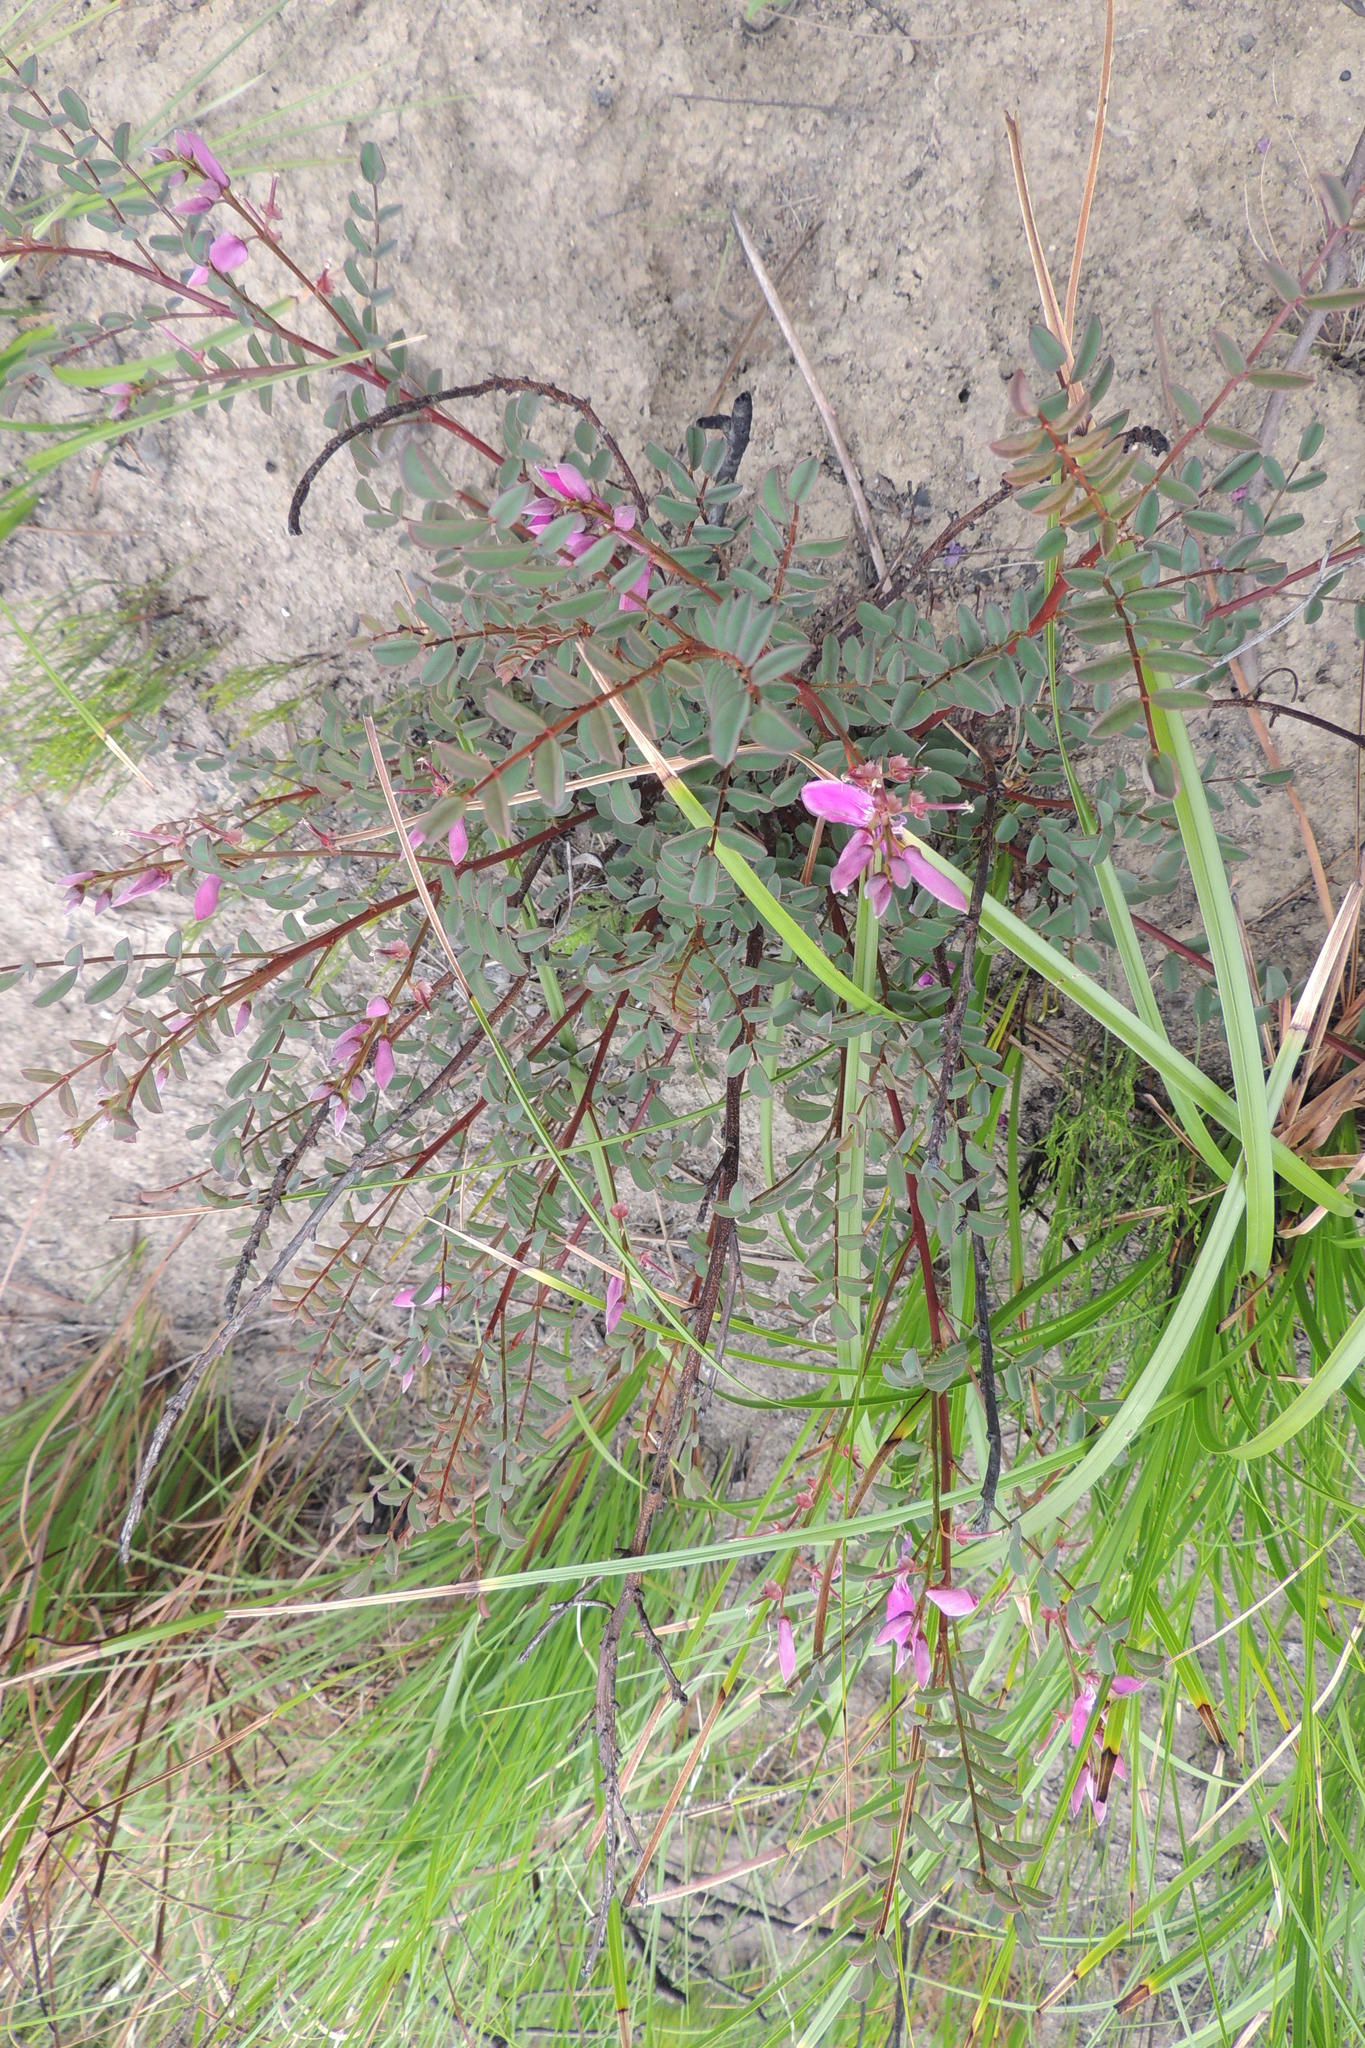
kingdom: Plantae
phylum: Tracheophyta
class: Magnoliopsida
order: Fabales
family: Fabaceae
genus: Indigofera
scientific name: Indigofera langebergensis
